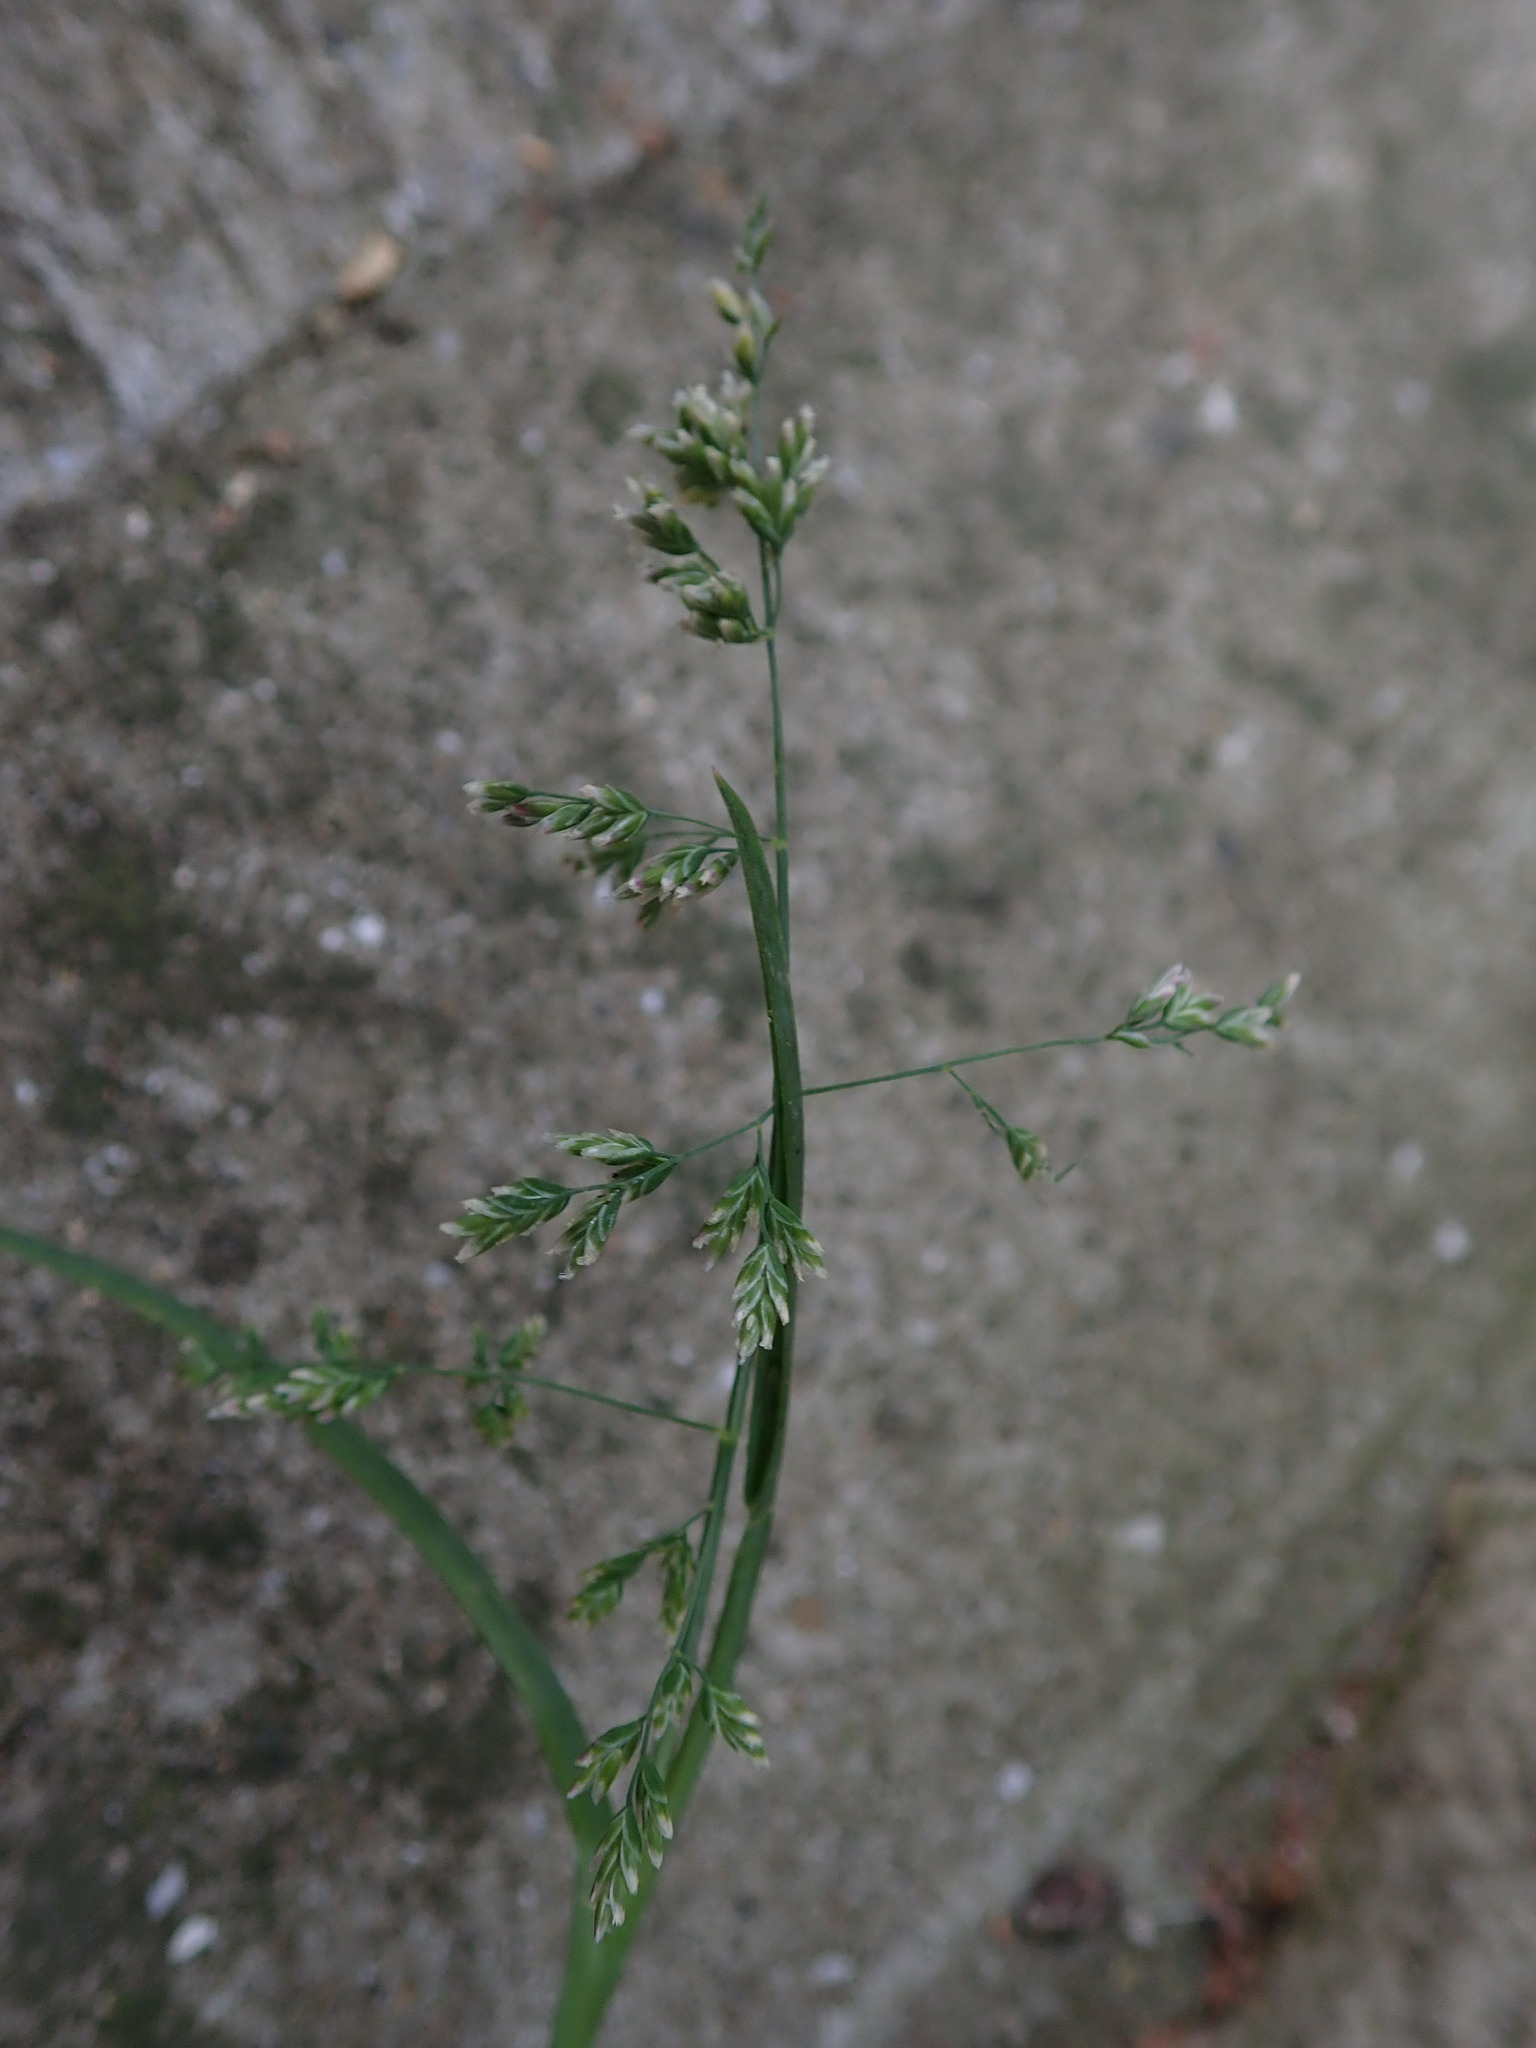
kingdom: Plantae
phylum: Tracheophyta
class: Liliopsida
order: Poales
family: Poaceae
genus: Poa
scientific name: Poa annua
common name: Annual bluegrass
